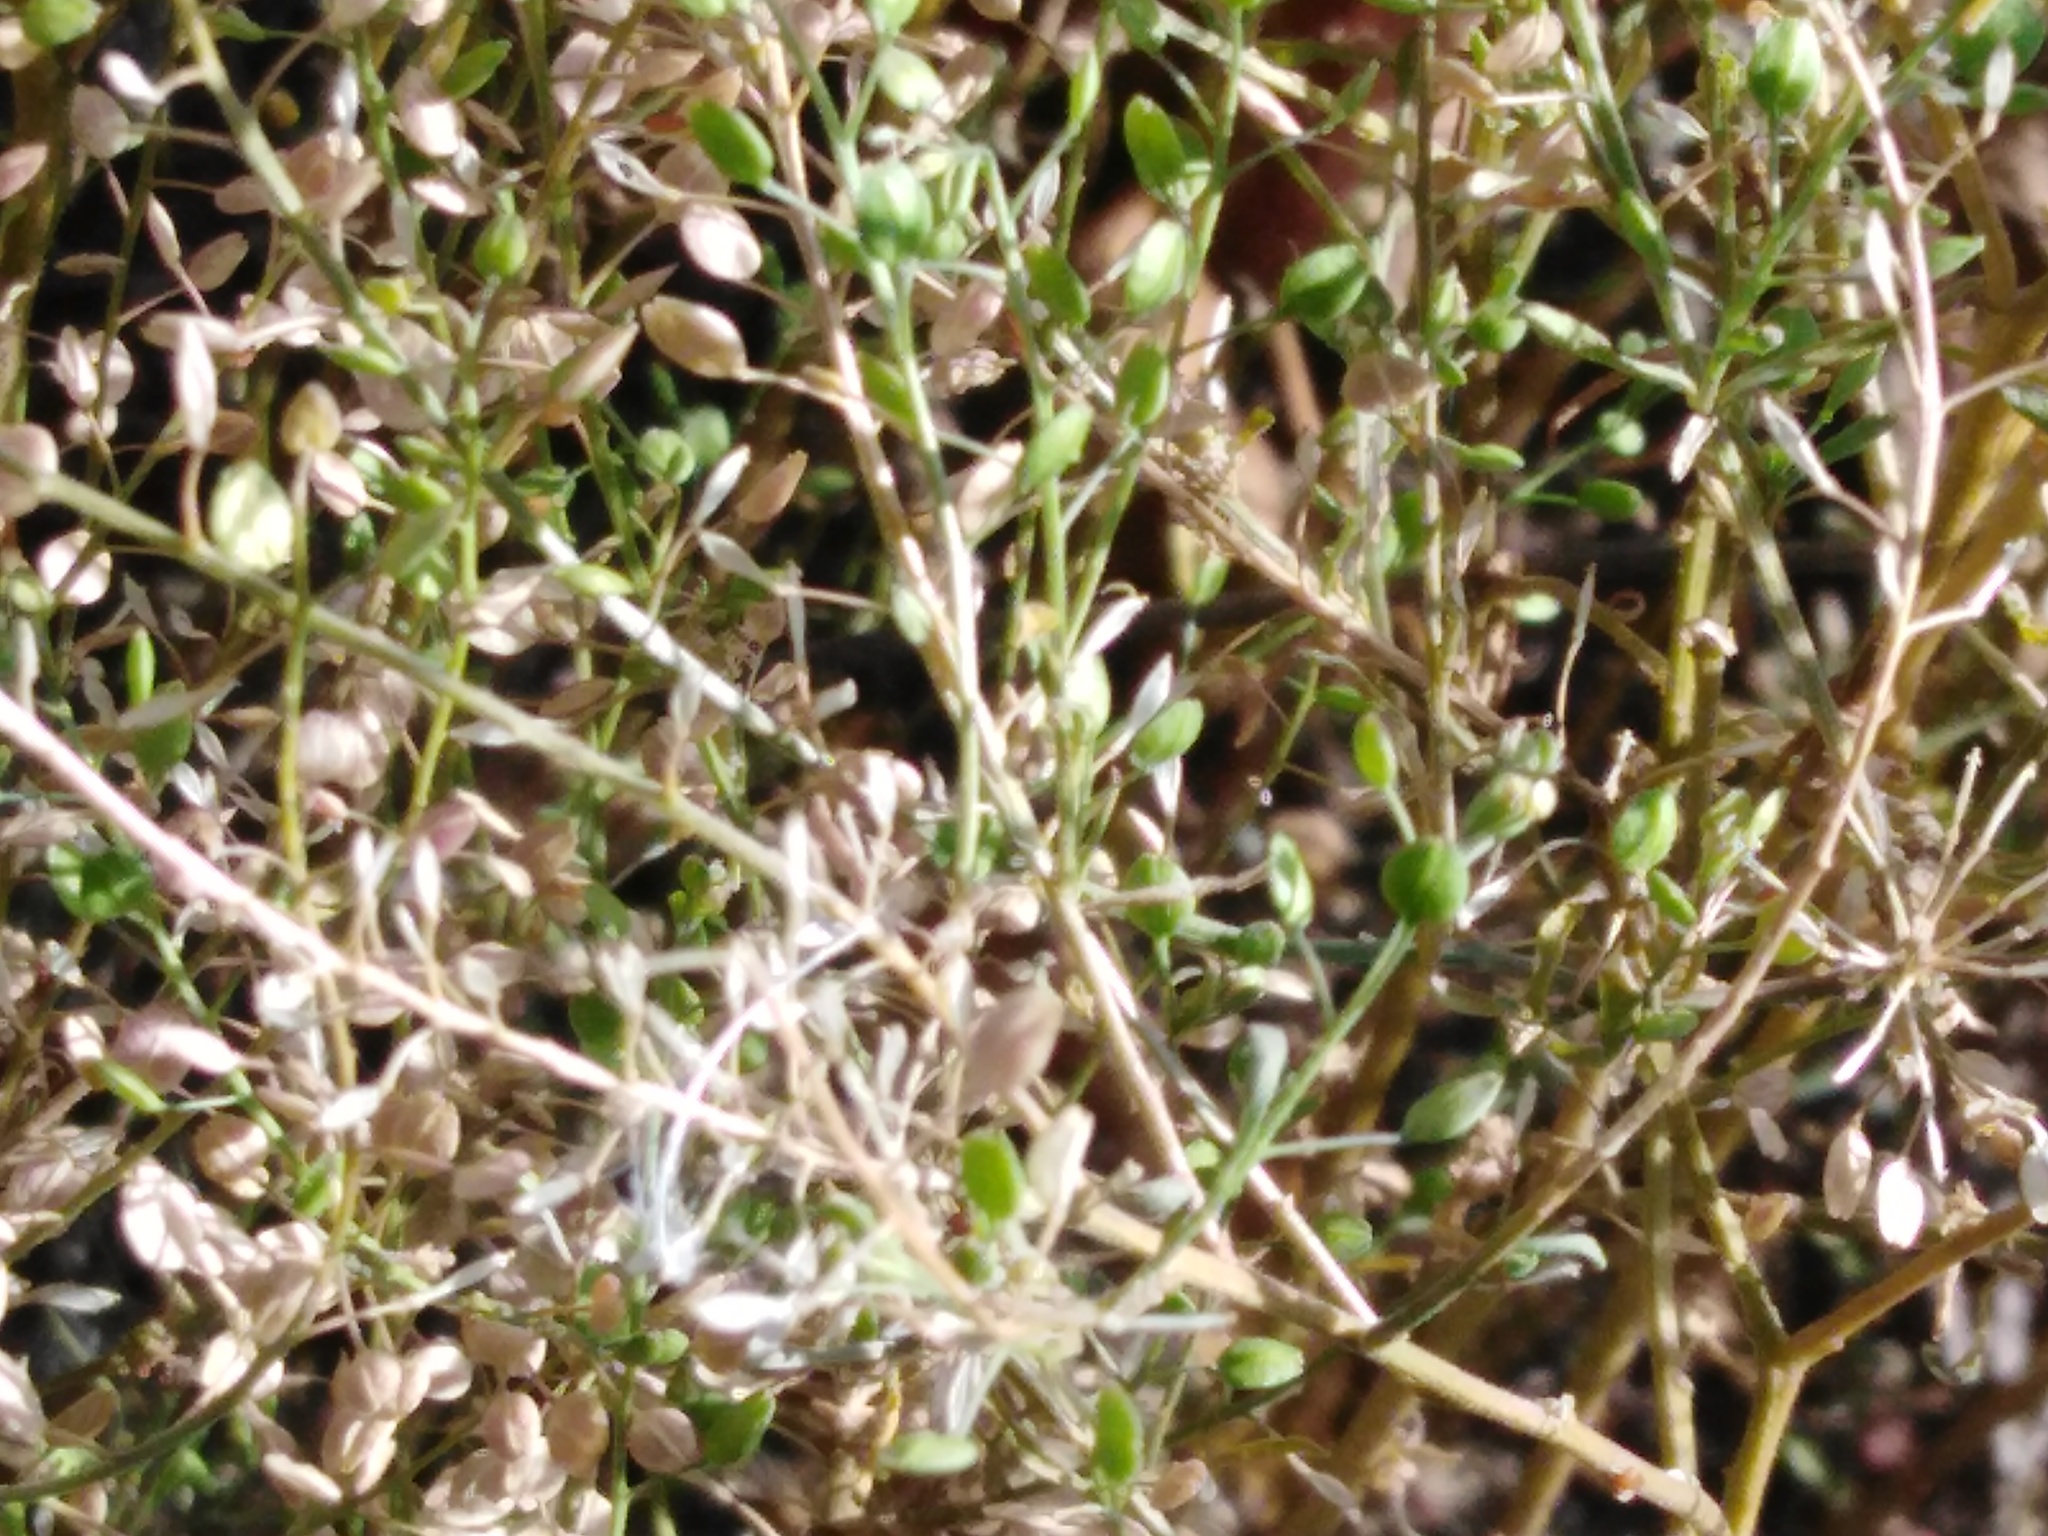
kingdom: Plantae
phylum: Tracheophyta
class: Magnoliopsida
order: Solanales
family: Solanaceae
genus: Alkekengi
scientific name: Alkekengi officinarum
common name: Japanese-lantern
